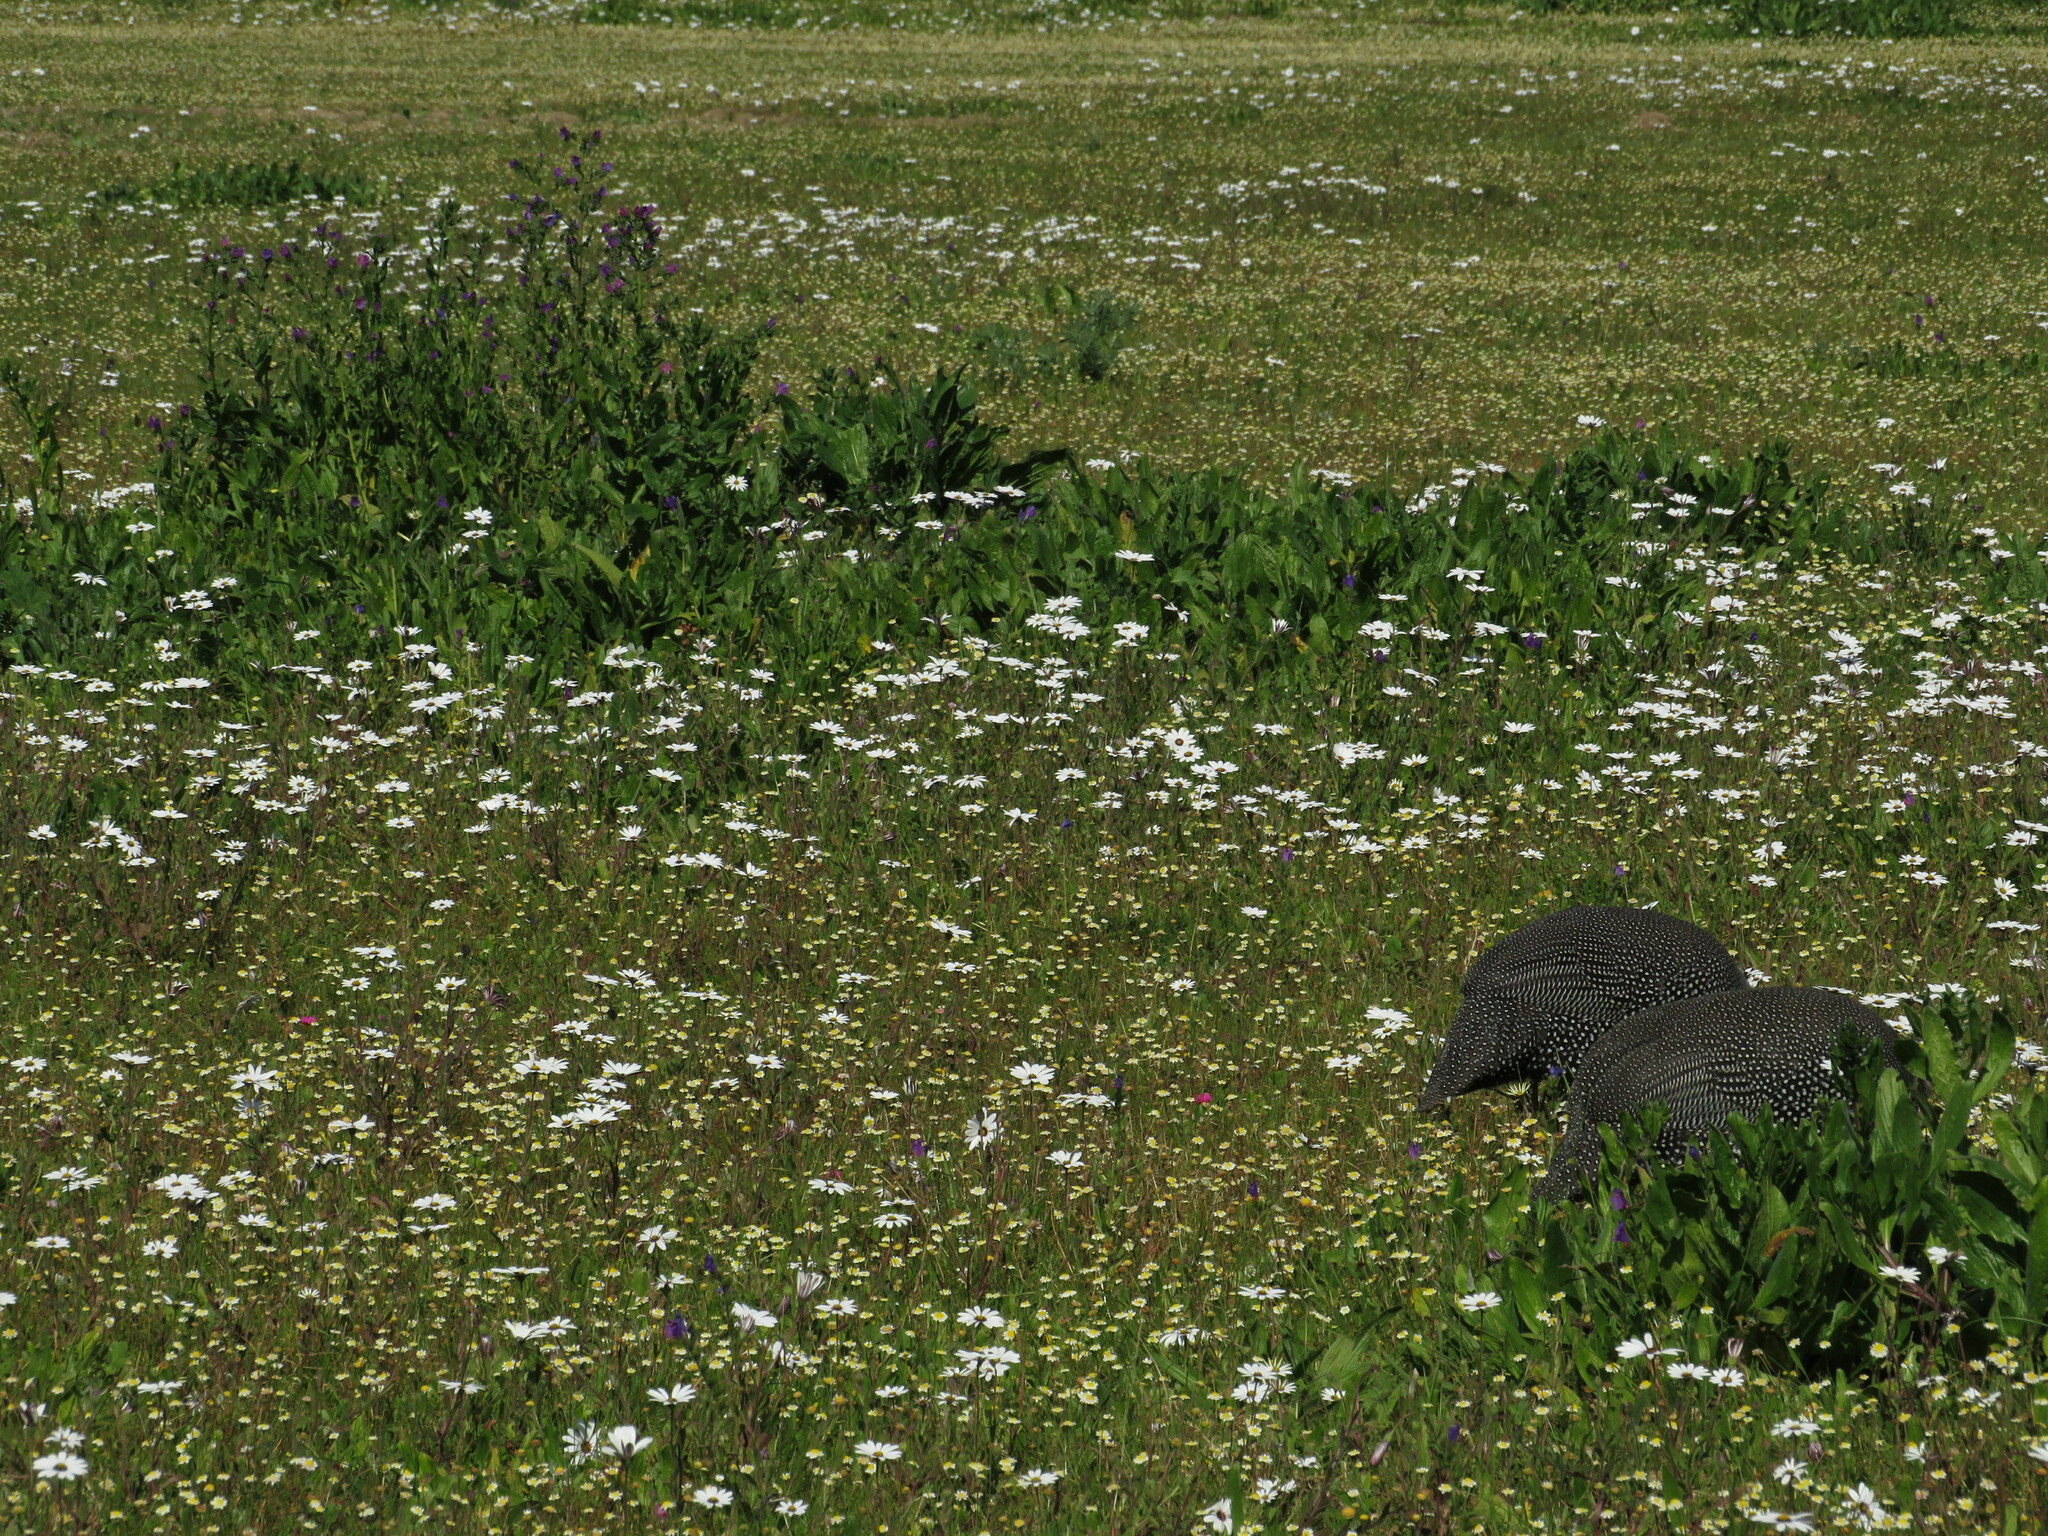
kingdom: Animalia
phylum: Chordata
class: Aves
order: Galliformes
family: Numididae
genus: Numida
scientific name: Numida meleagris
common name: Helmeted guineafowl
